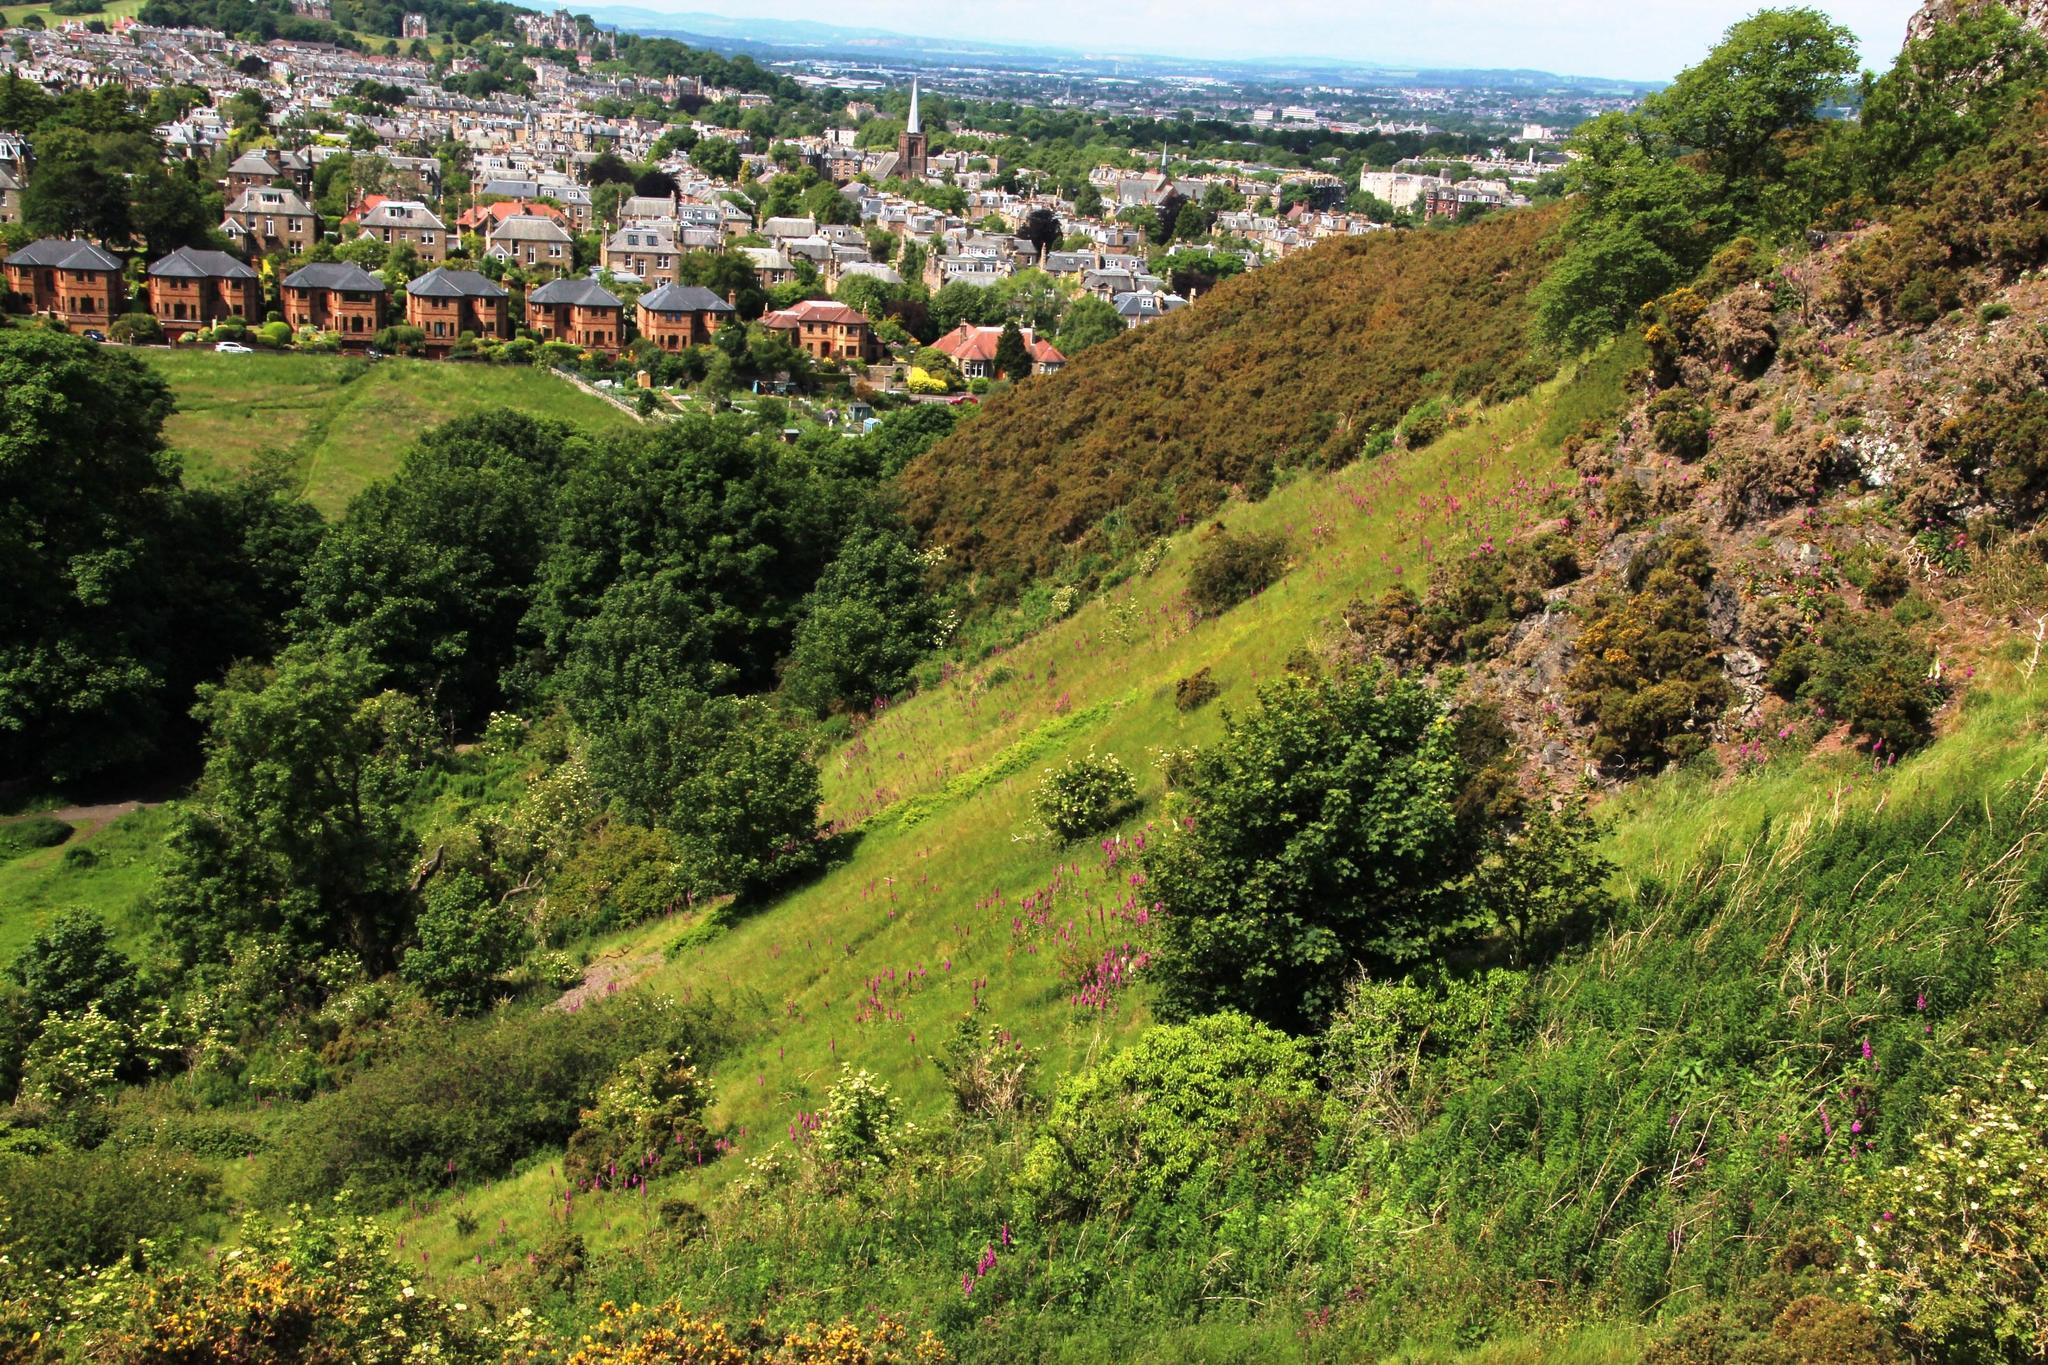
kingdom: Plantae
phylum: Tracheophyta
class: Magnoliopsida
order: Lamiales
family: Plantaginaceae
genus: Digitalis
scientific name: Digitalis purpurea
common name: Foxglove
